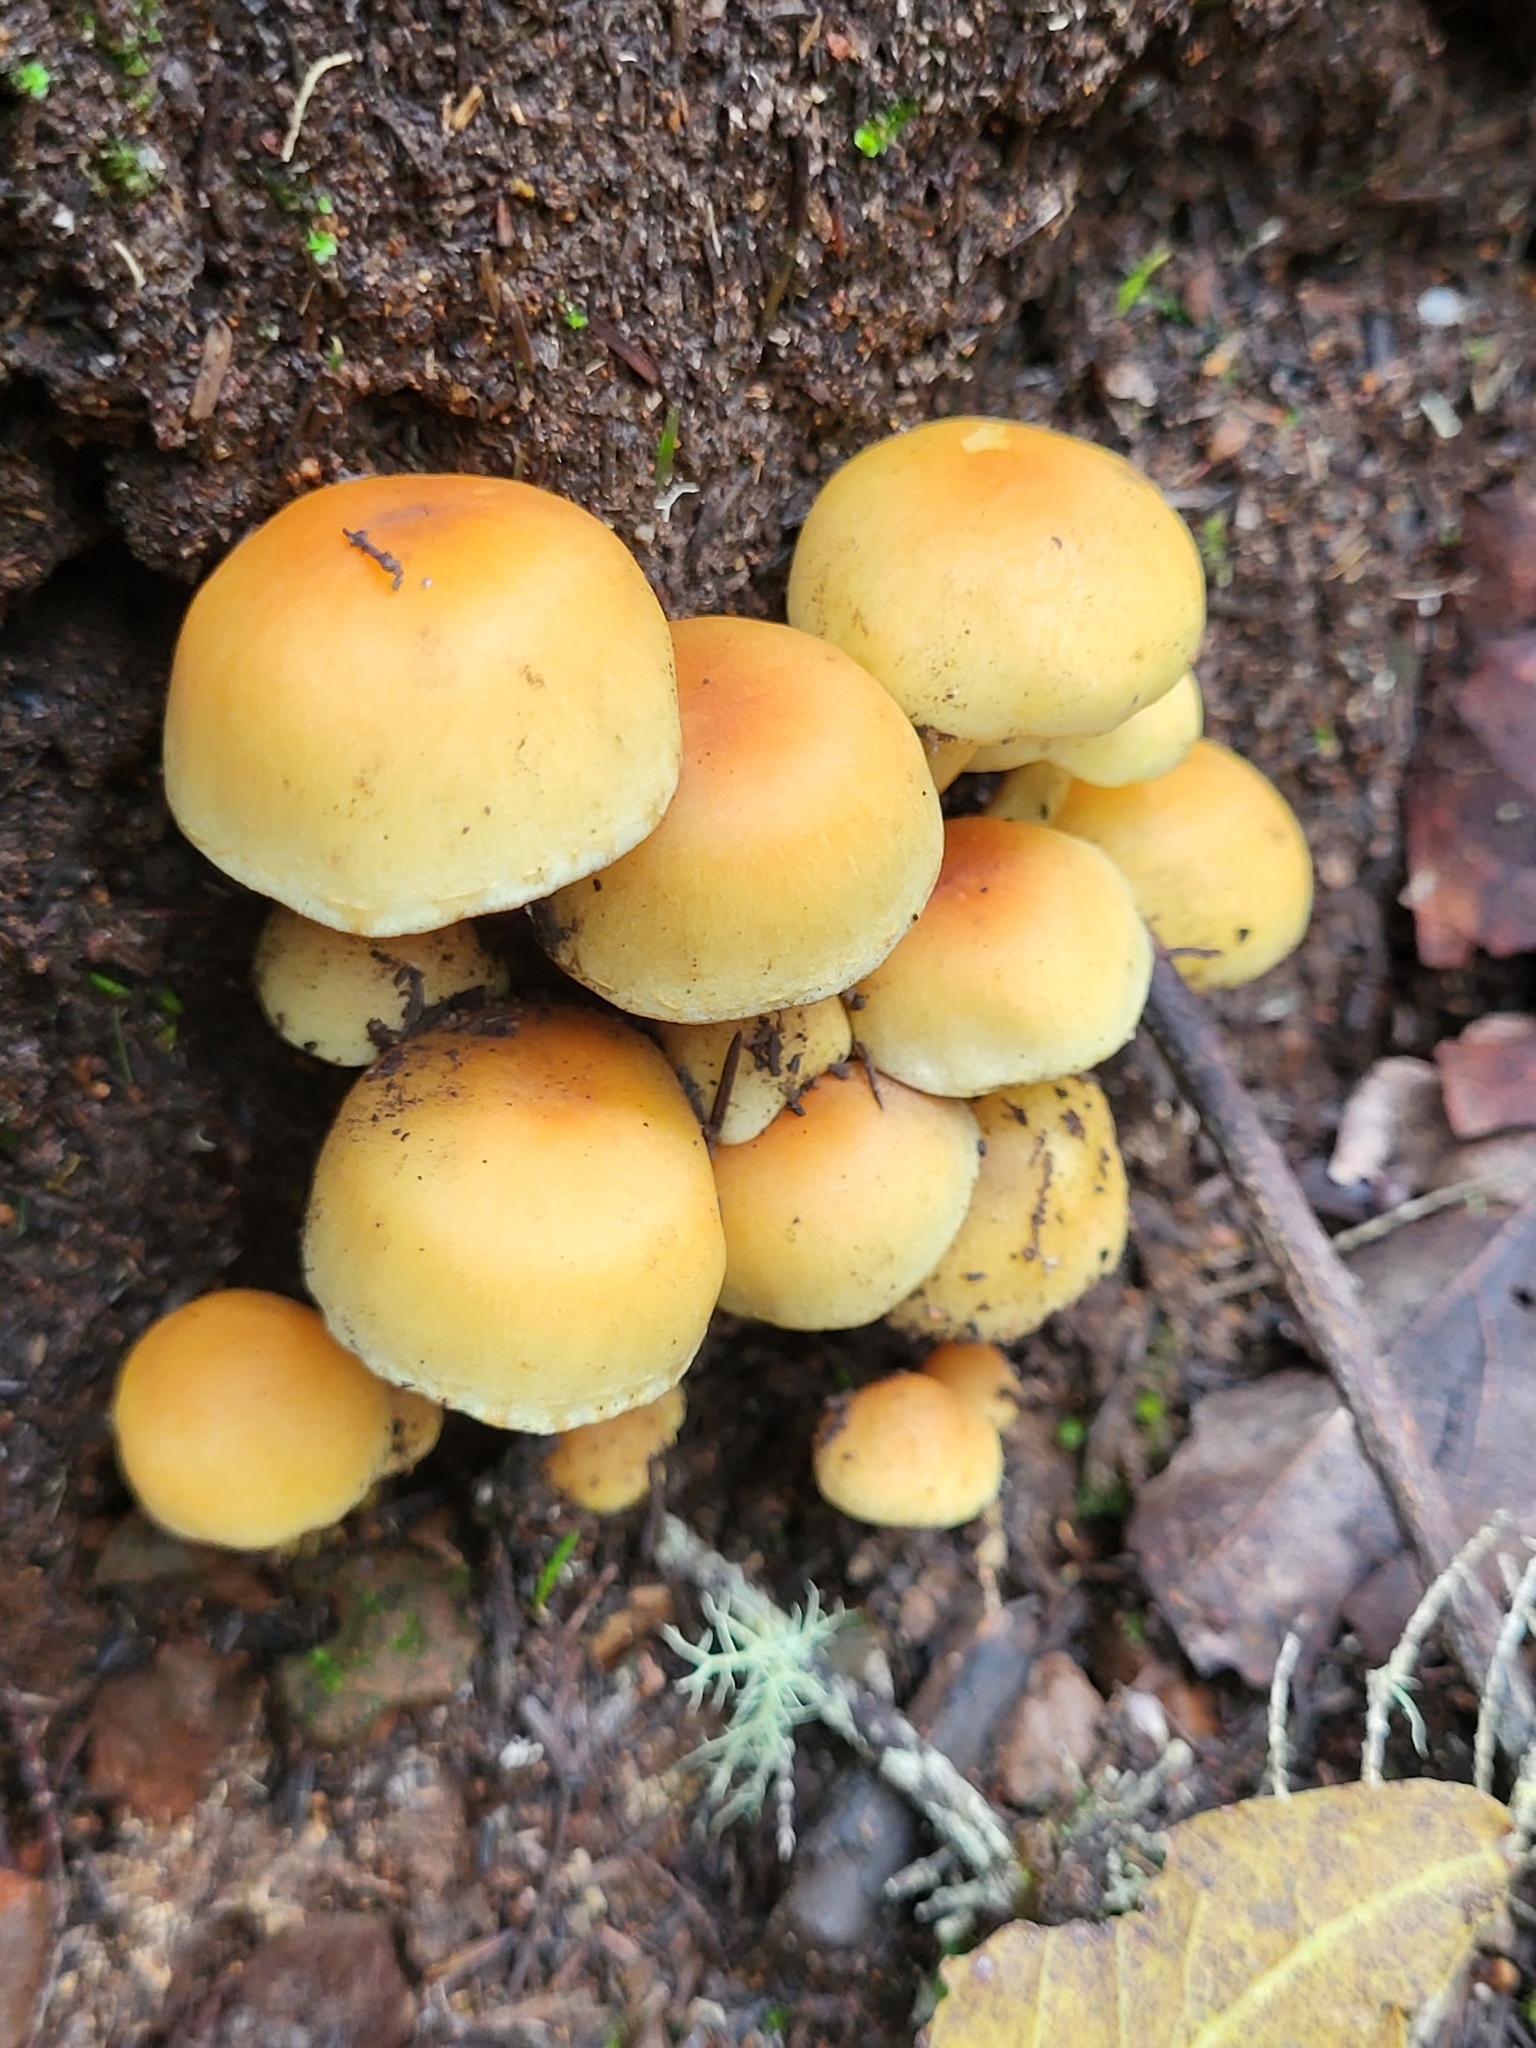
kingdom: Fungi
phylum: Basidiomycota
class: Agaricomycetes
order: Agaricales
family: Strophariaceae
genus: Hypholoma
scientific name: Hypholoma fasciculare
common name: Sulphur tuft
